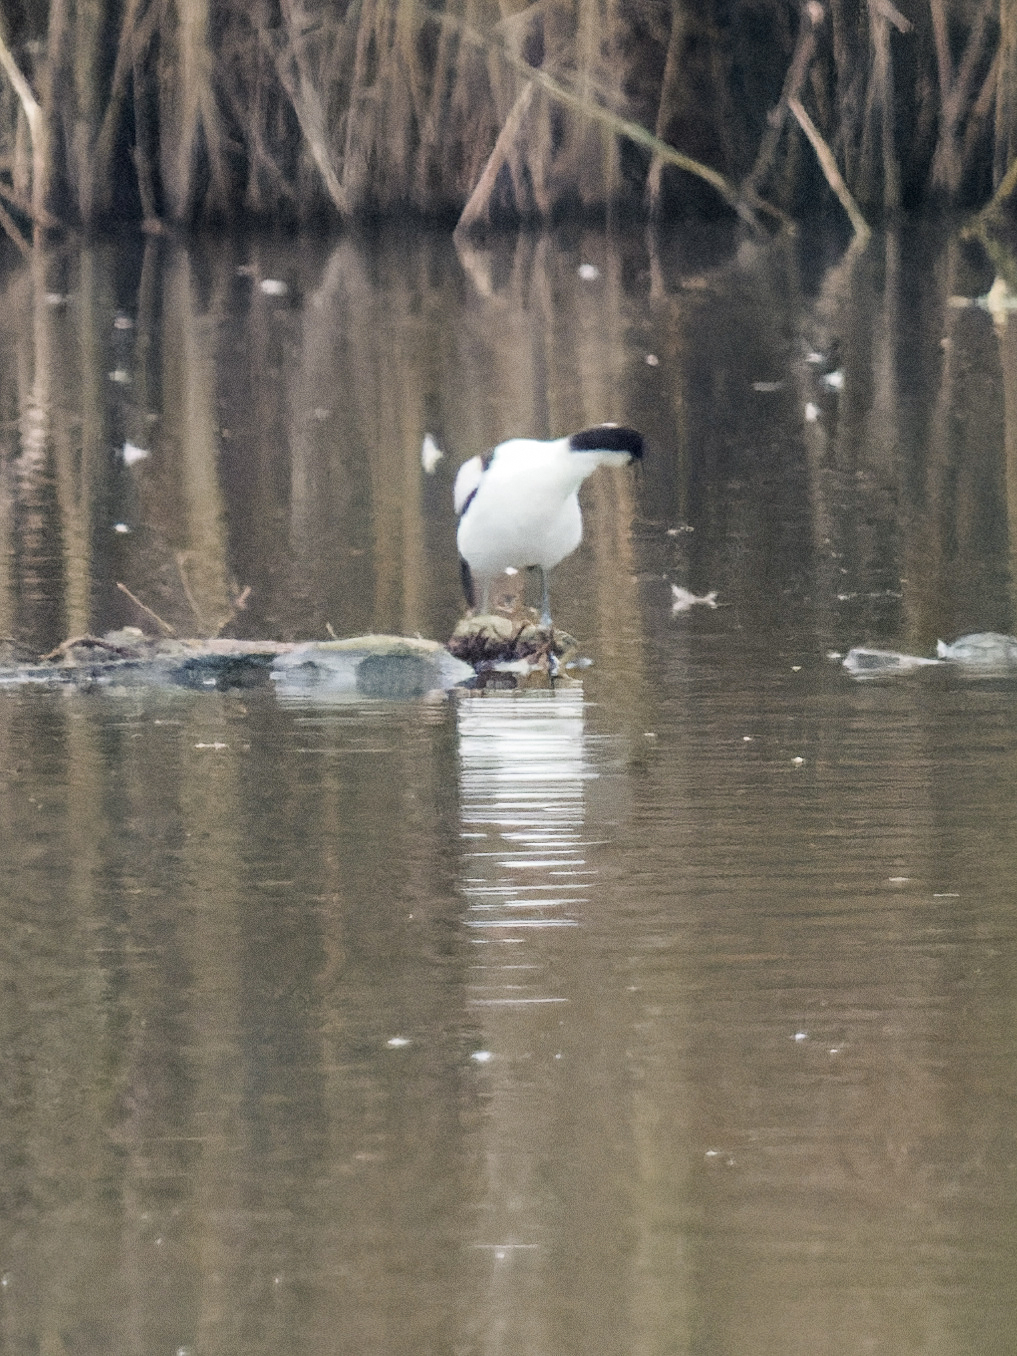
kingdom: Animalia
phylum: Chordata
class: Aves
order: Charadriiformes
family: Recurvirostridae
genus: Recurvirostra
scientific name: Recurvirostra avosetta
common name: Pied avocet
